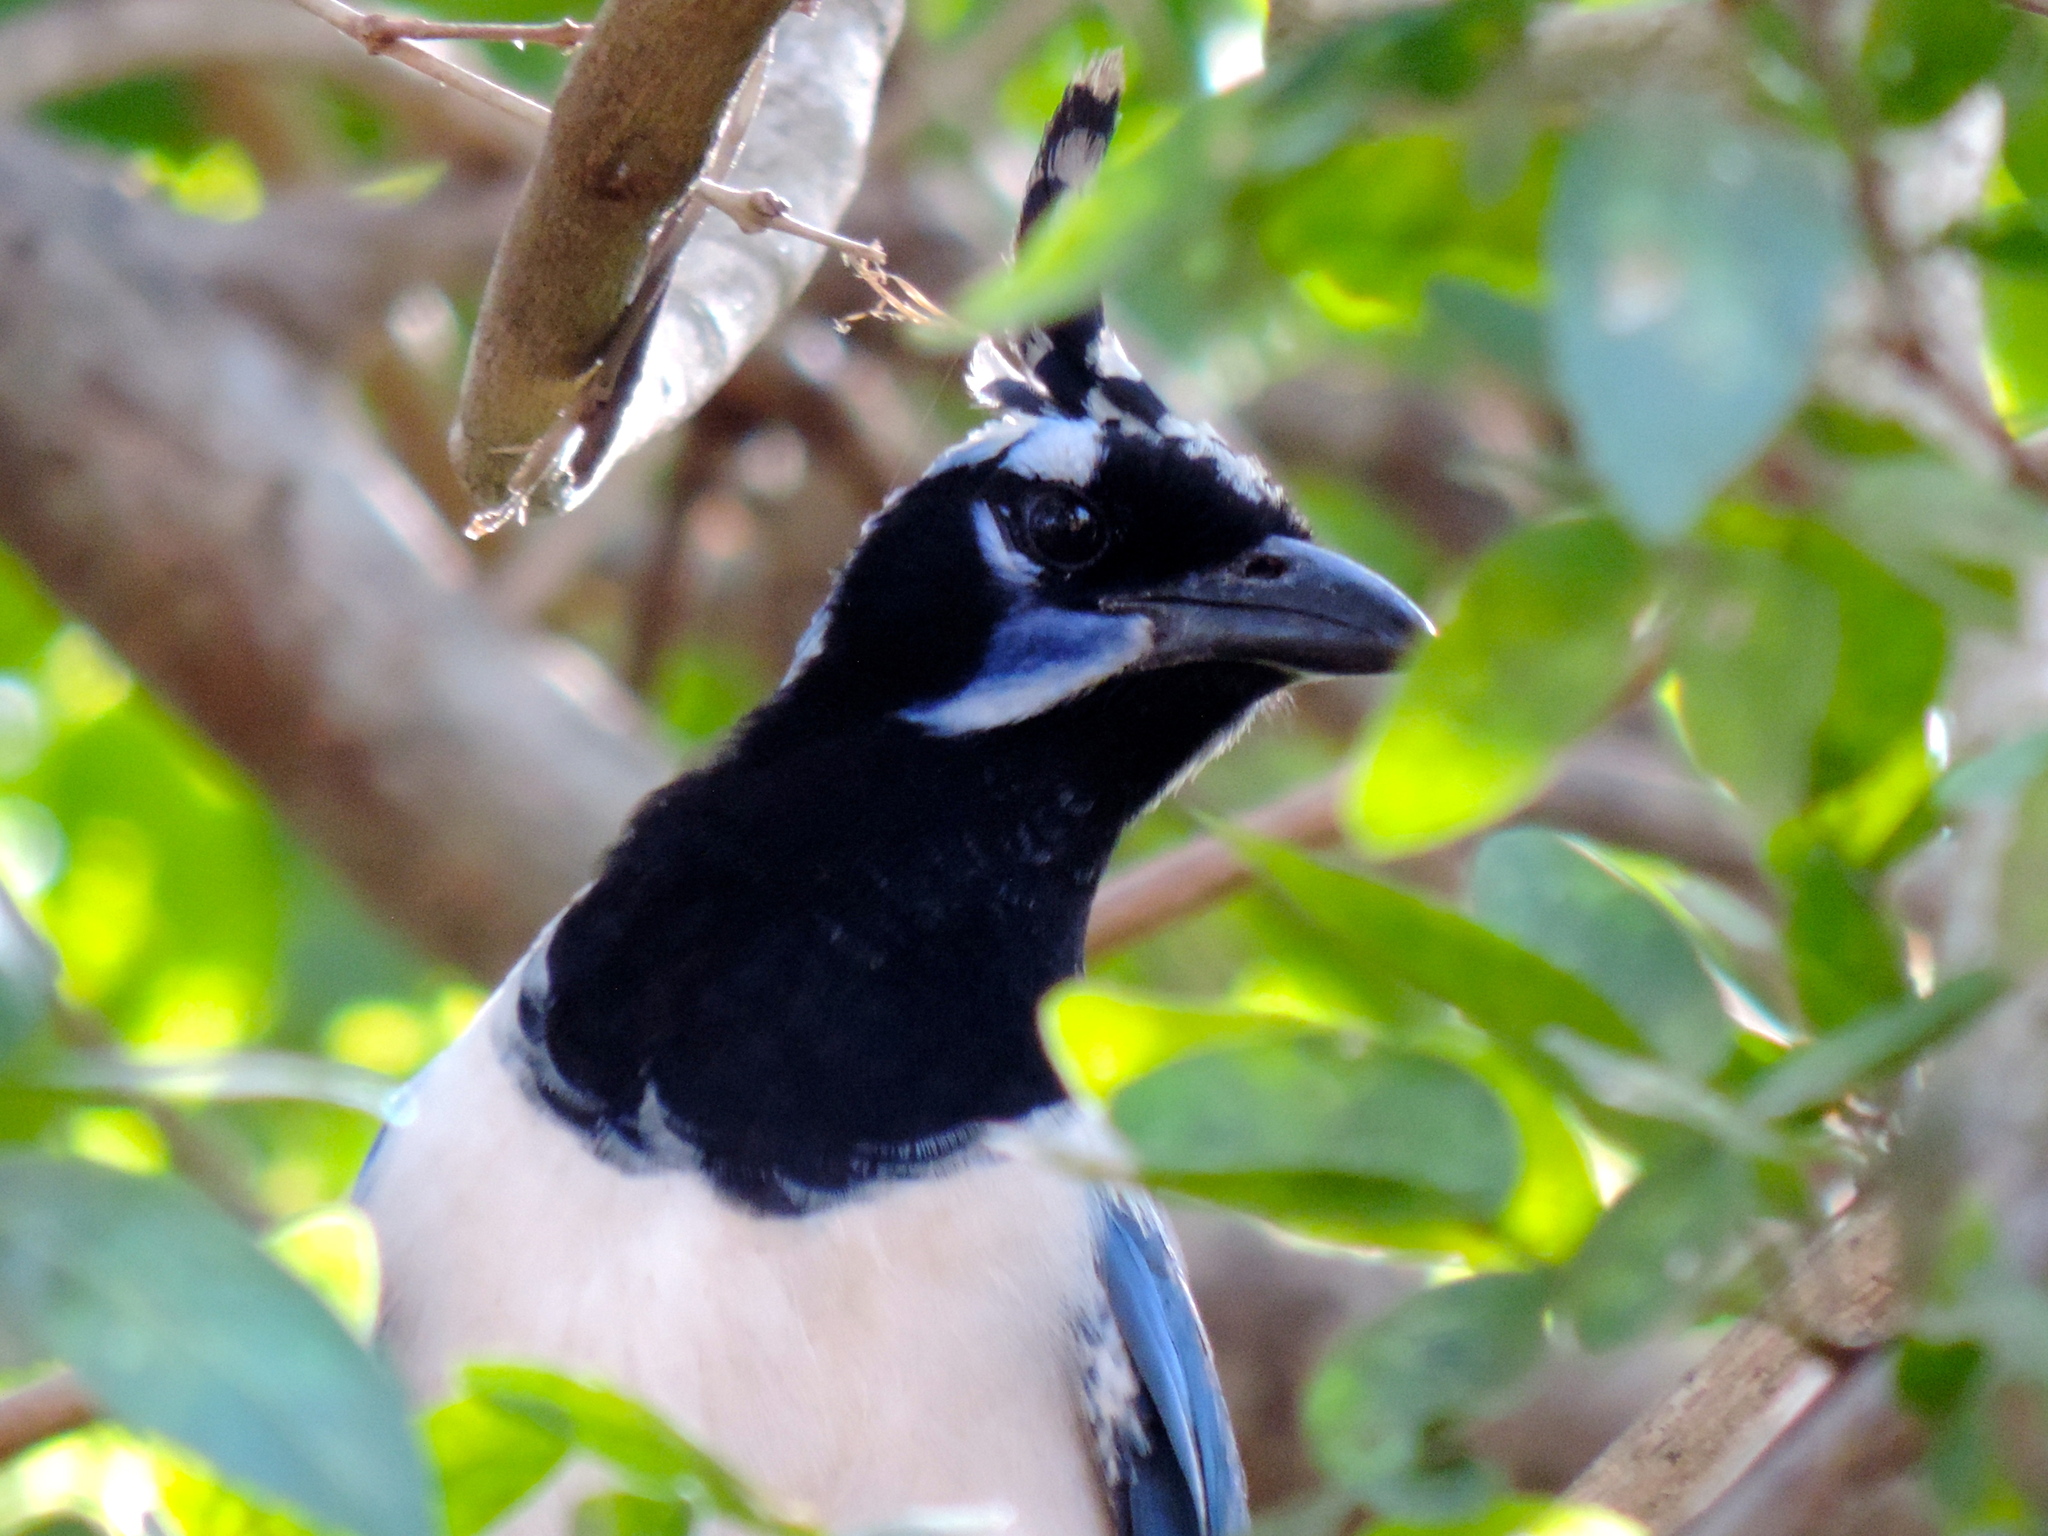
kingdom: Animalia
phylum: Chordata
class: Aves
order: Passeriformes
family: Corvidae
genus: Calocitta
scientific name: Calocitta colliei
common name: Black-throated magpie-jay
